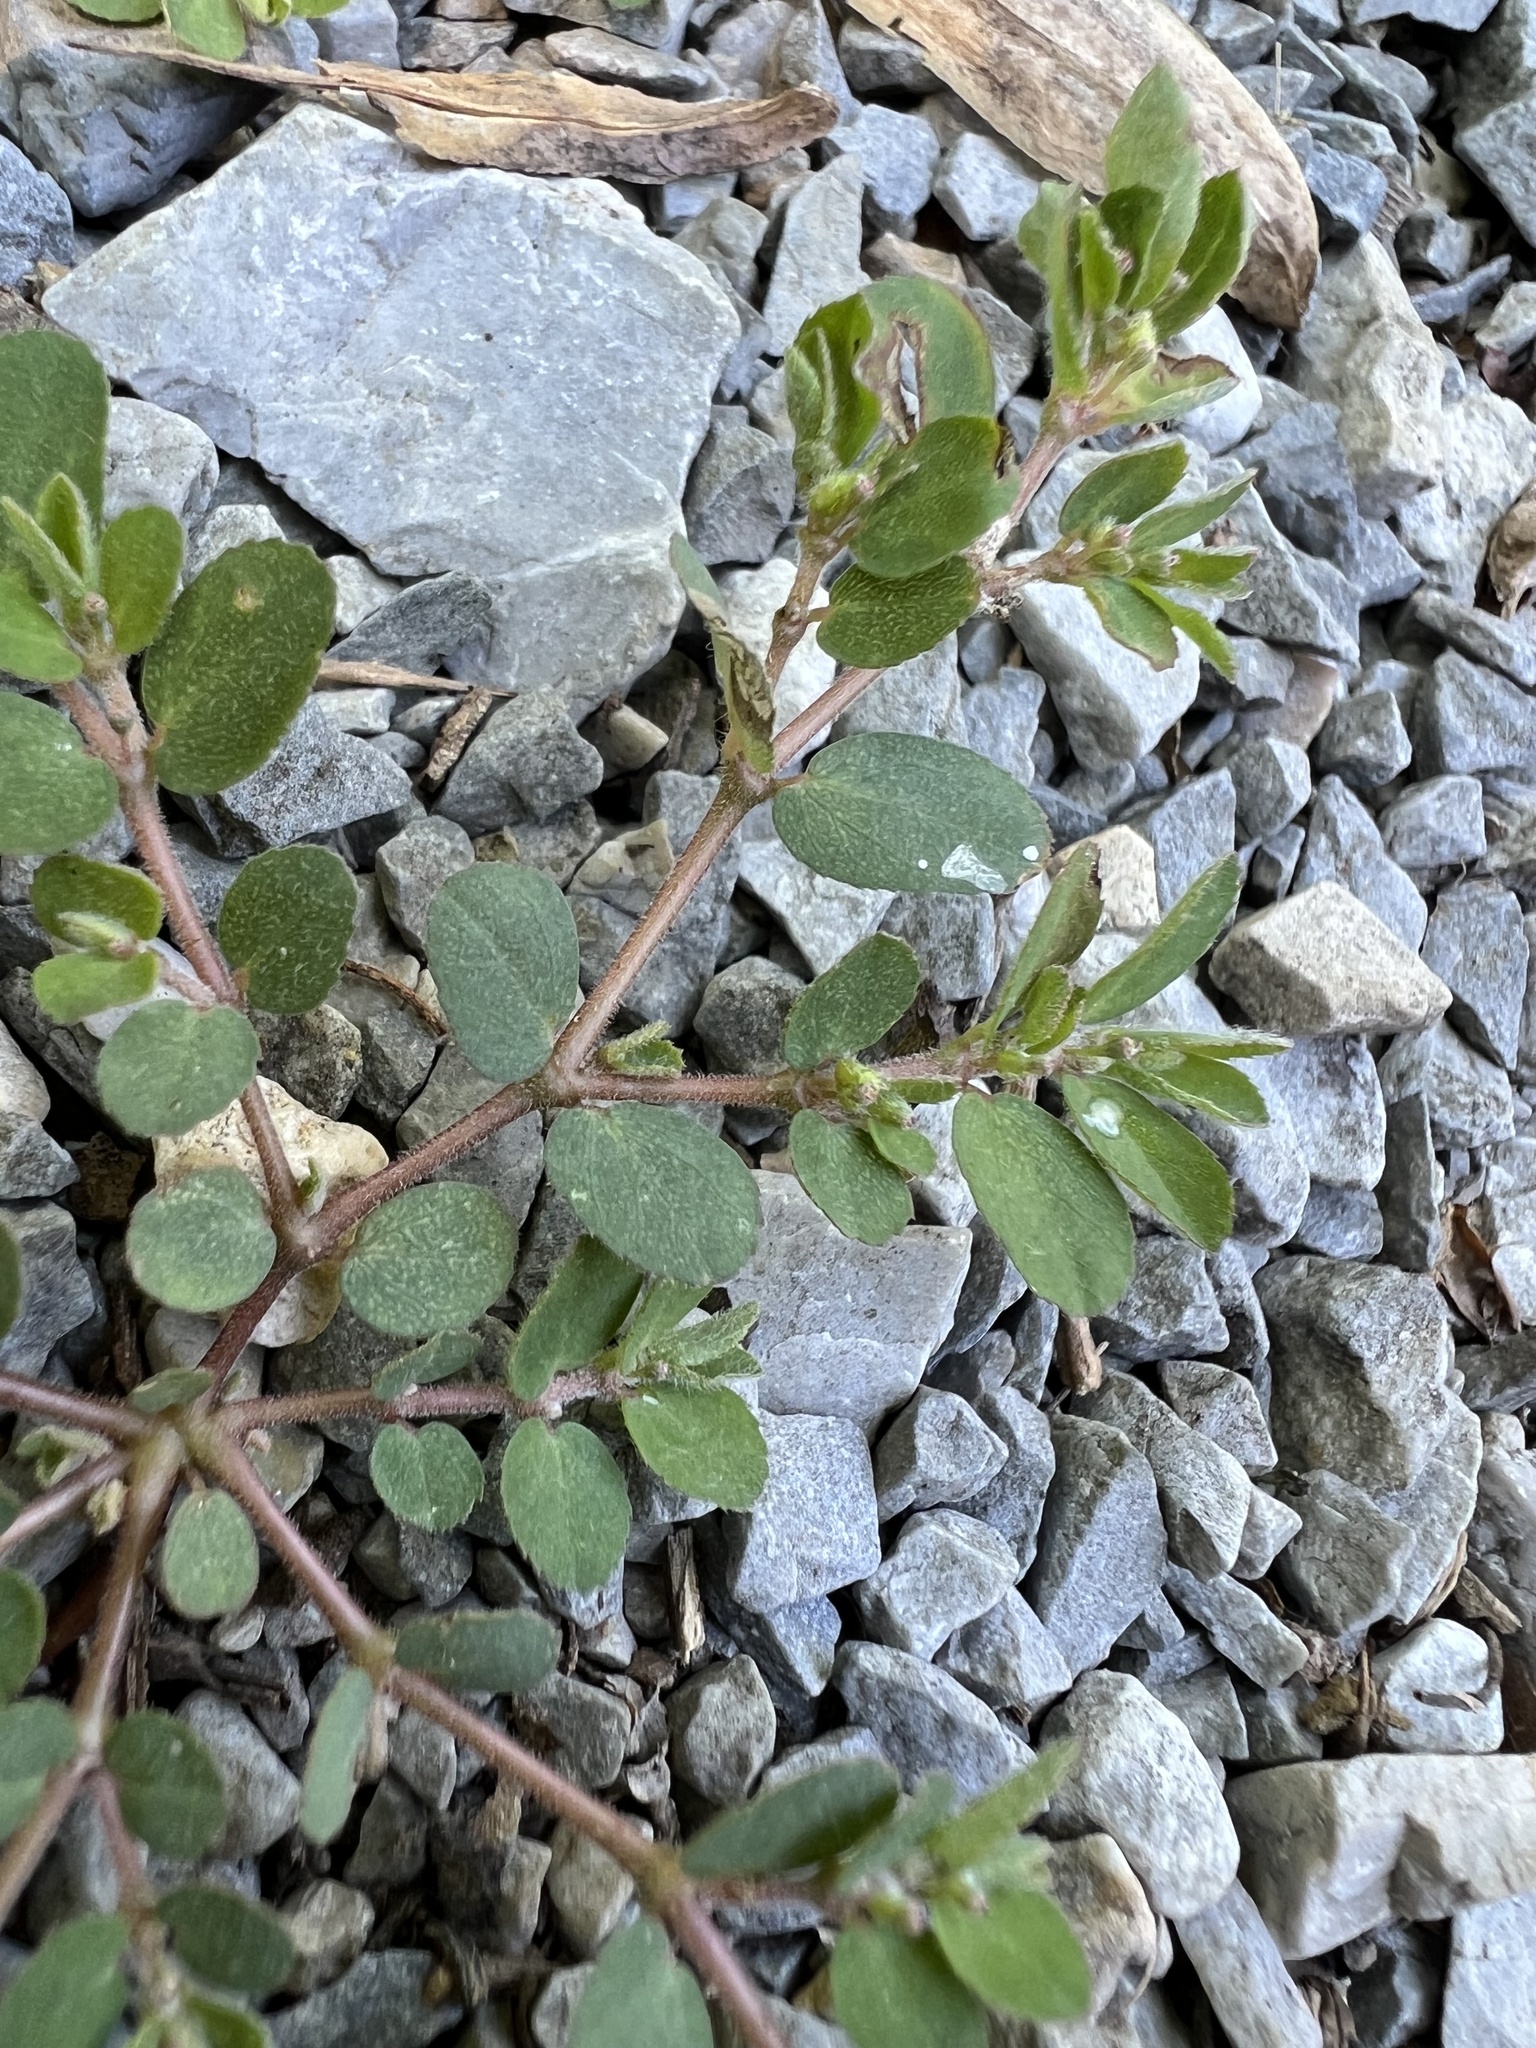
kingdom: Plantae
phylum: Tracheophyta
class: Magnoliopsida
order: Malpighiales
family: Euphorbiaceae
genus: Euphorbia
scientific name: Euphorbia prostrata
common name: Prostrate sandmat
